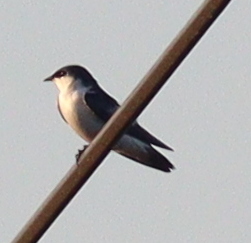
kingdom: Animalia
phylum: Chordata
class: Aves
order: Passeriformes
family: Hirundinidae
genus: Tachycineta
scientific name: Tachycineta albiventer
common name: White-winged swallow
